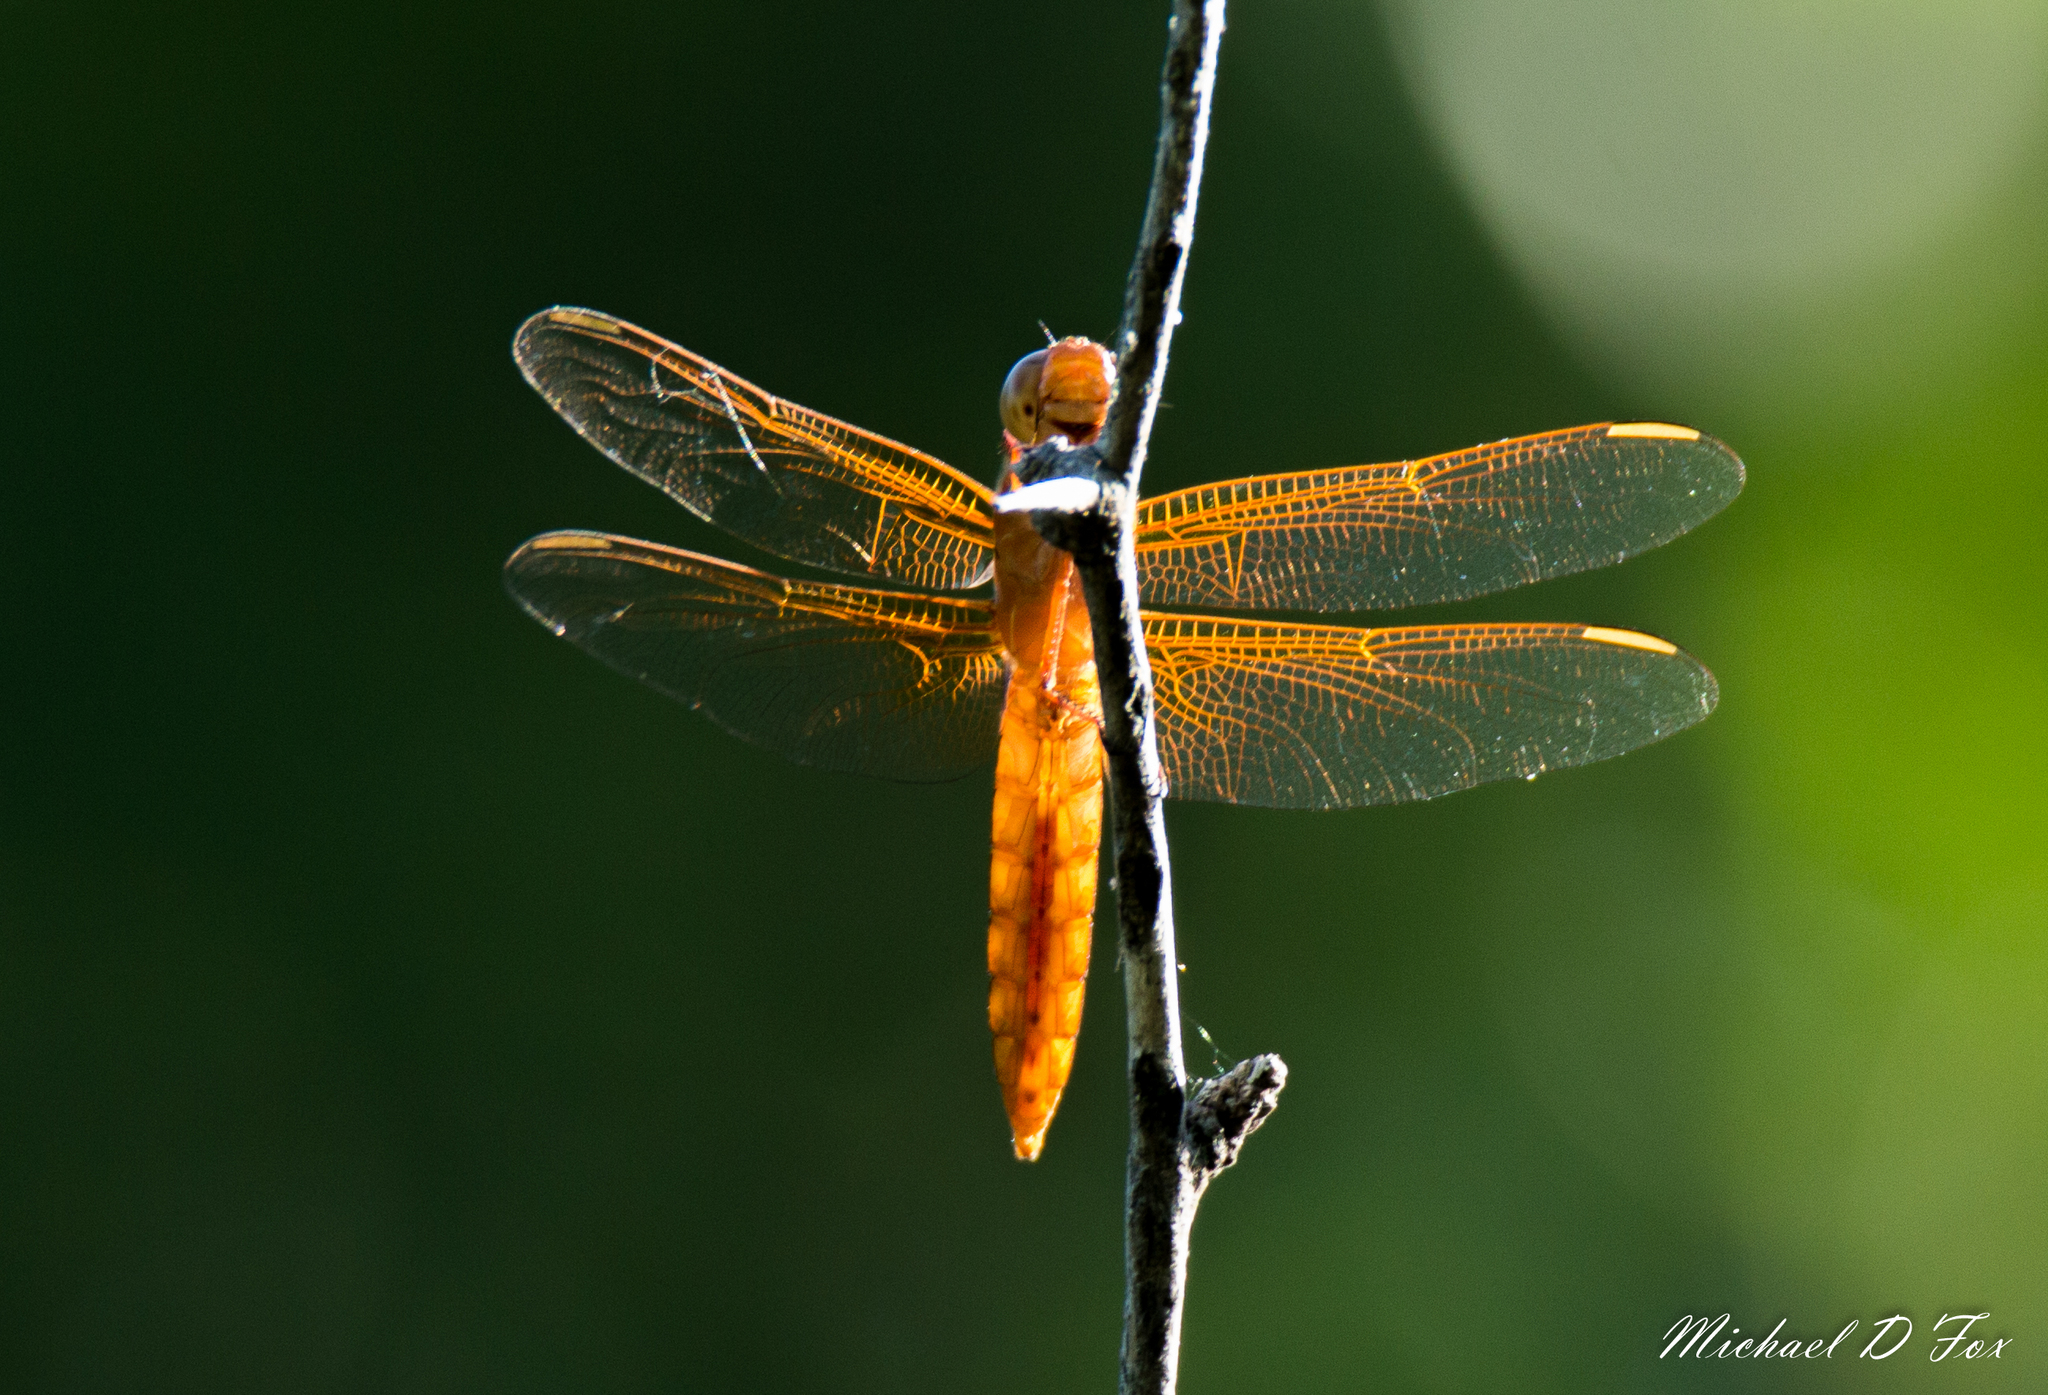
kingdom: Animalia
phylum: Arthropoda
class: Insecta
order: Odonata
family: Libellulidae
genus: Libellula
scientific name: Libellula croceipennis
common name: Neon skimmer
